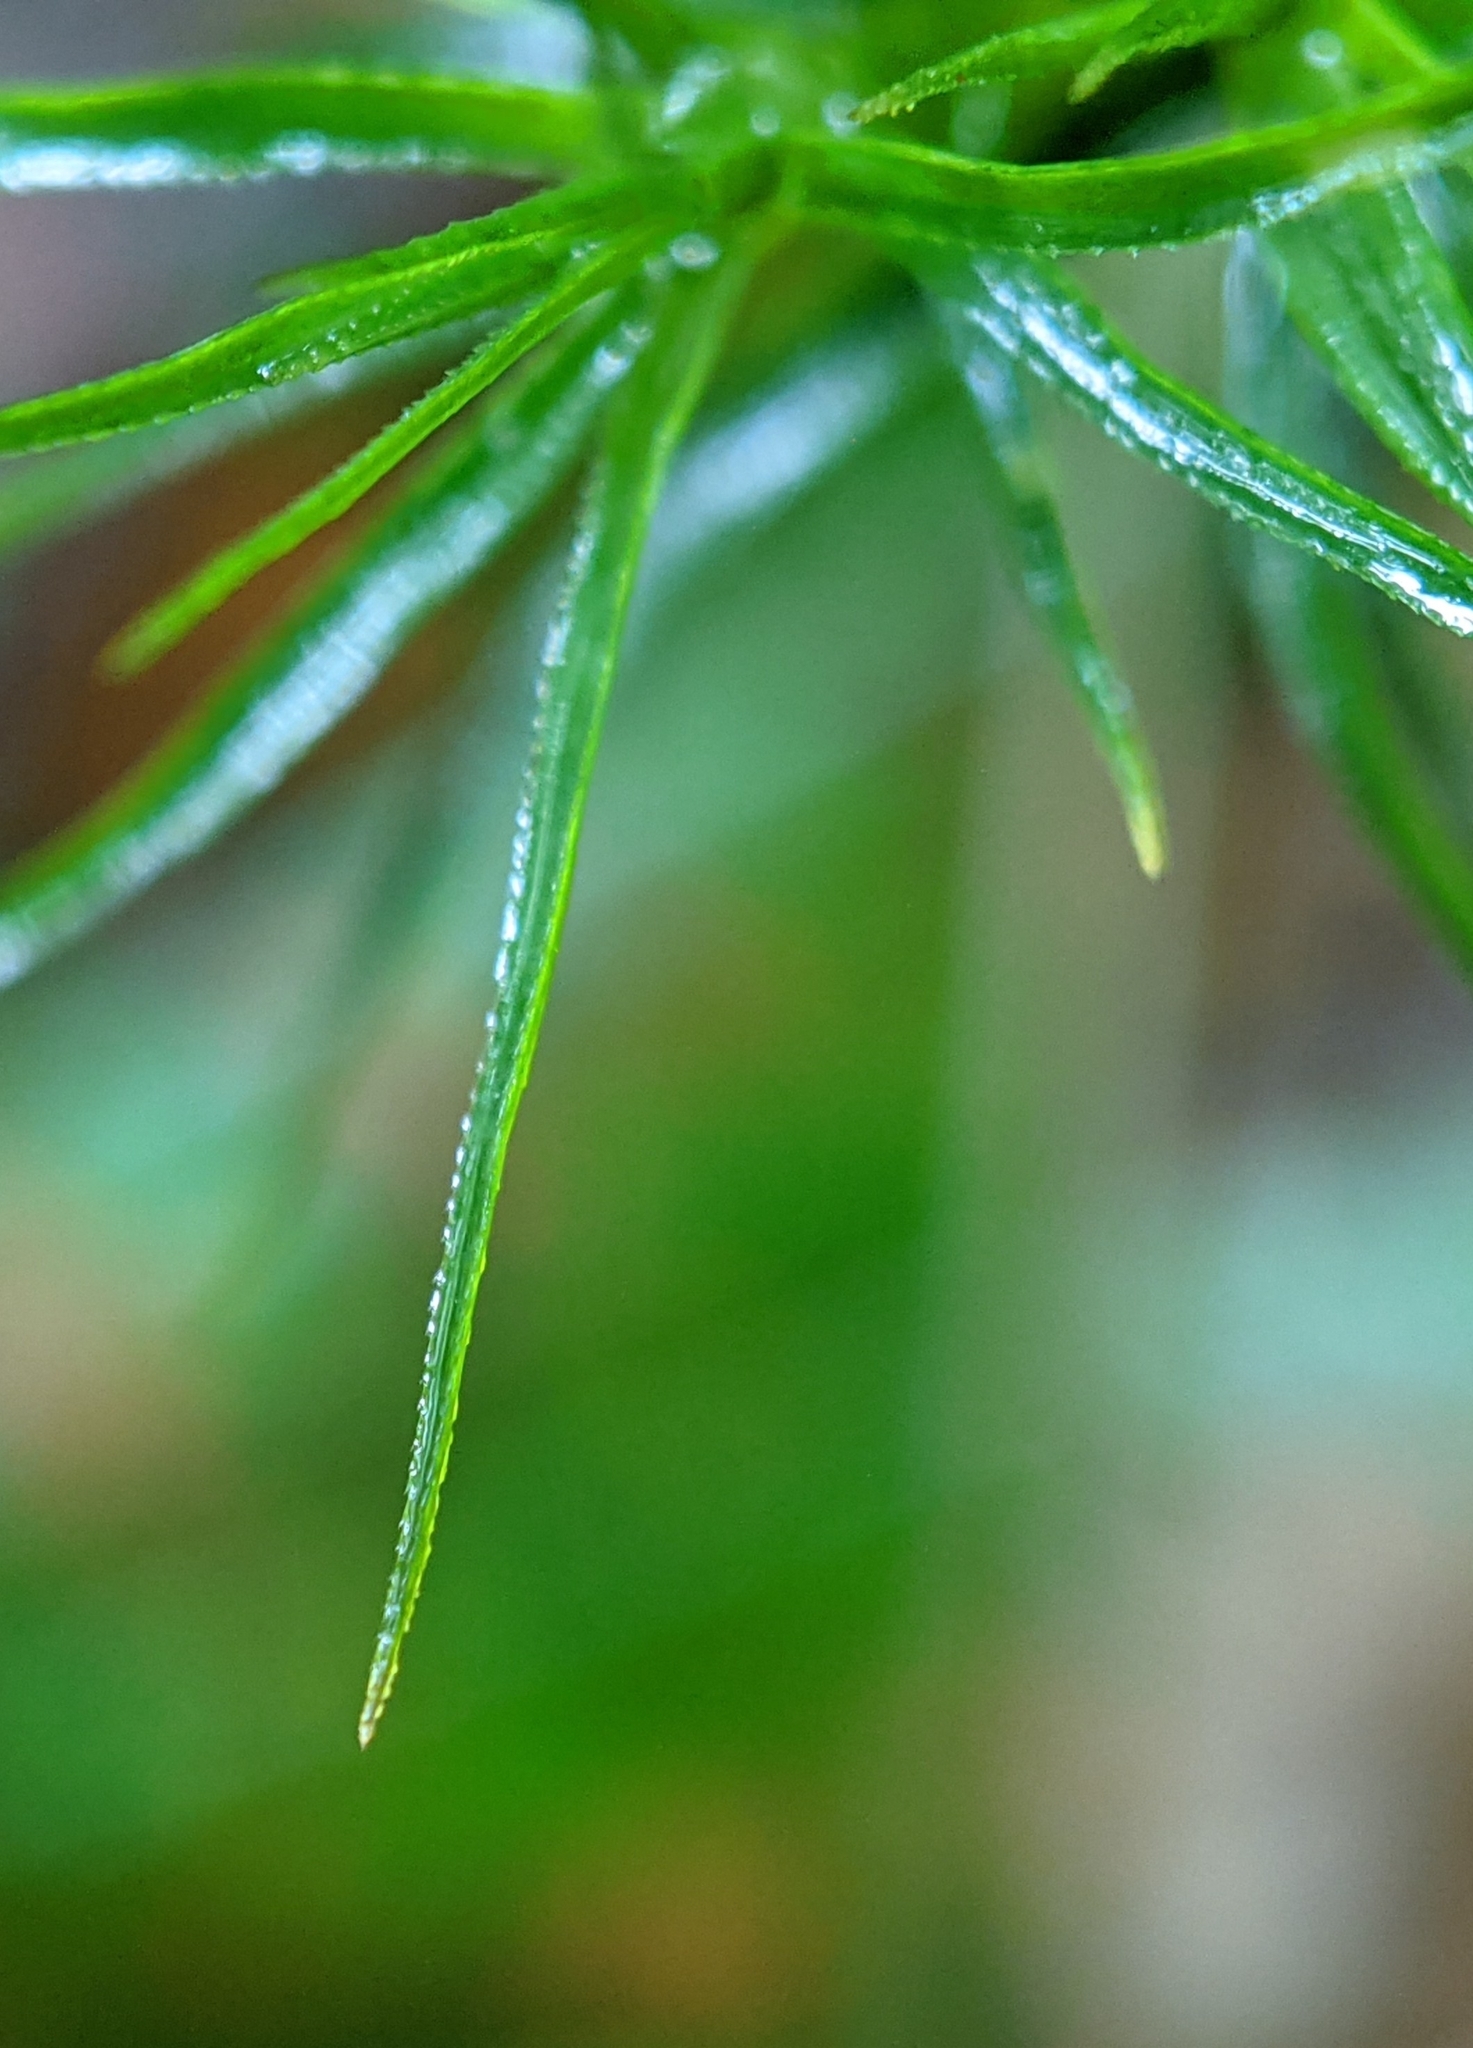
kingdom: Plantae
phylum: Bryophyta
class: Polytrichopsida
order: Polytrichales
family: Polytrichaceae
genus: Polytrichastrum
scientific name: Polytrichastrum alpinum
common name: Alpine haircap
